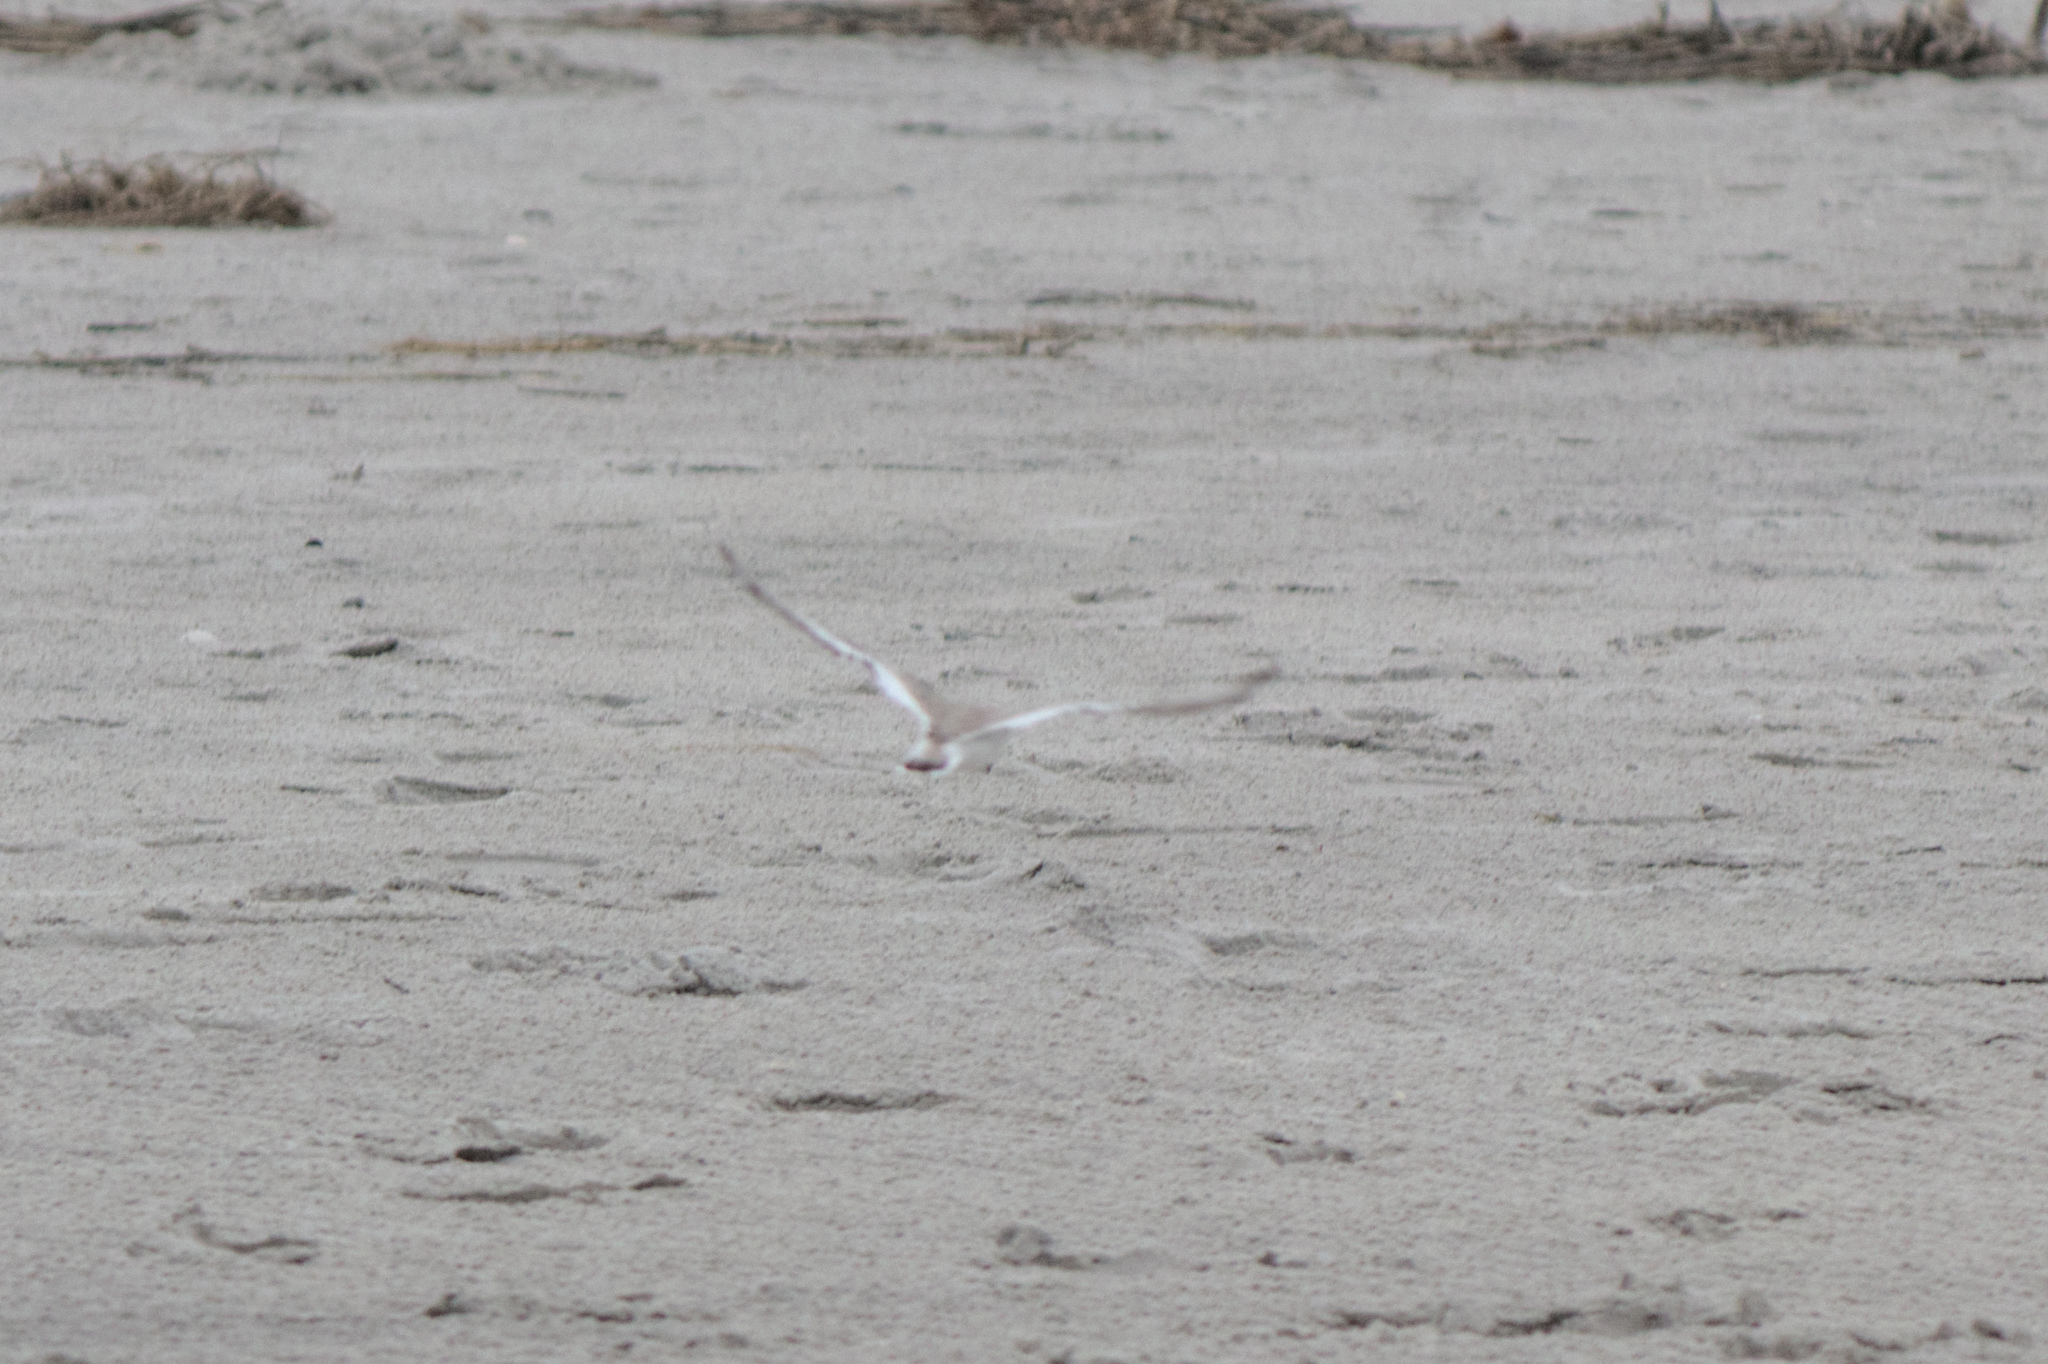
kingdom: Animalia
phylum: Chordata
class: Aves
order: Charadriiformes
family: Charadriidae
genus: Charadrius
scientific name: Charadrius melodus
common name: Piping plover
